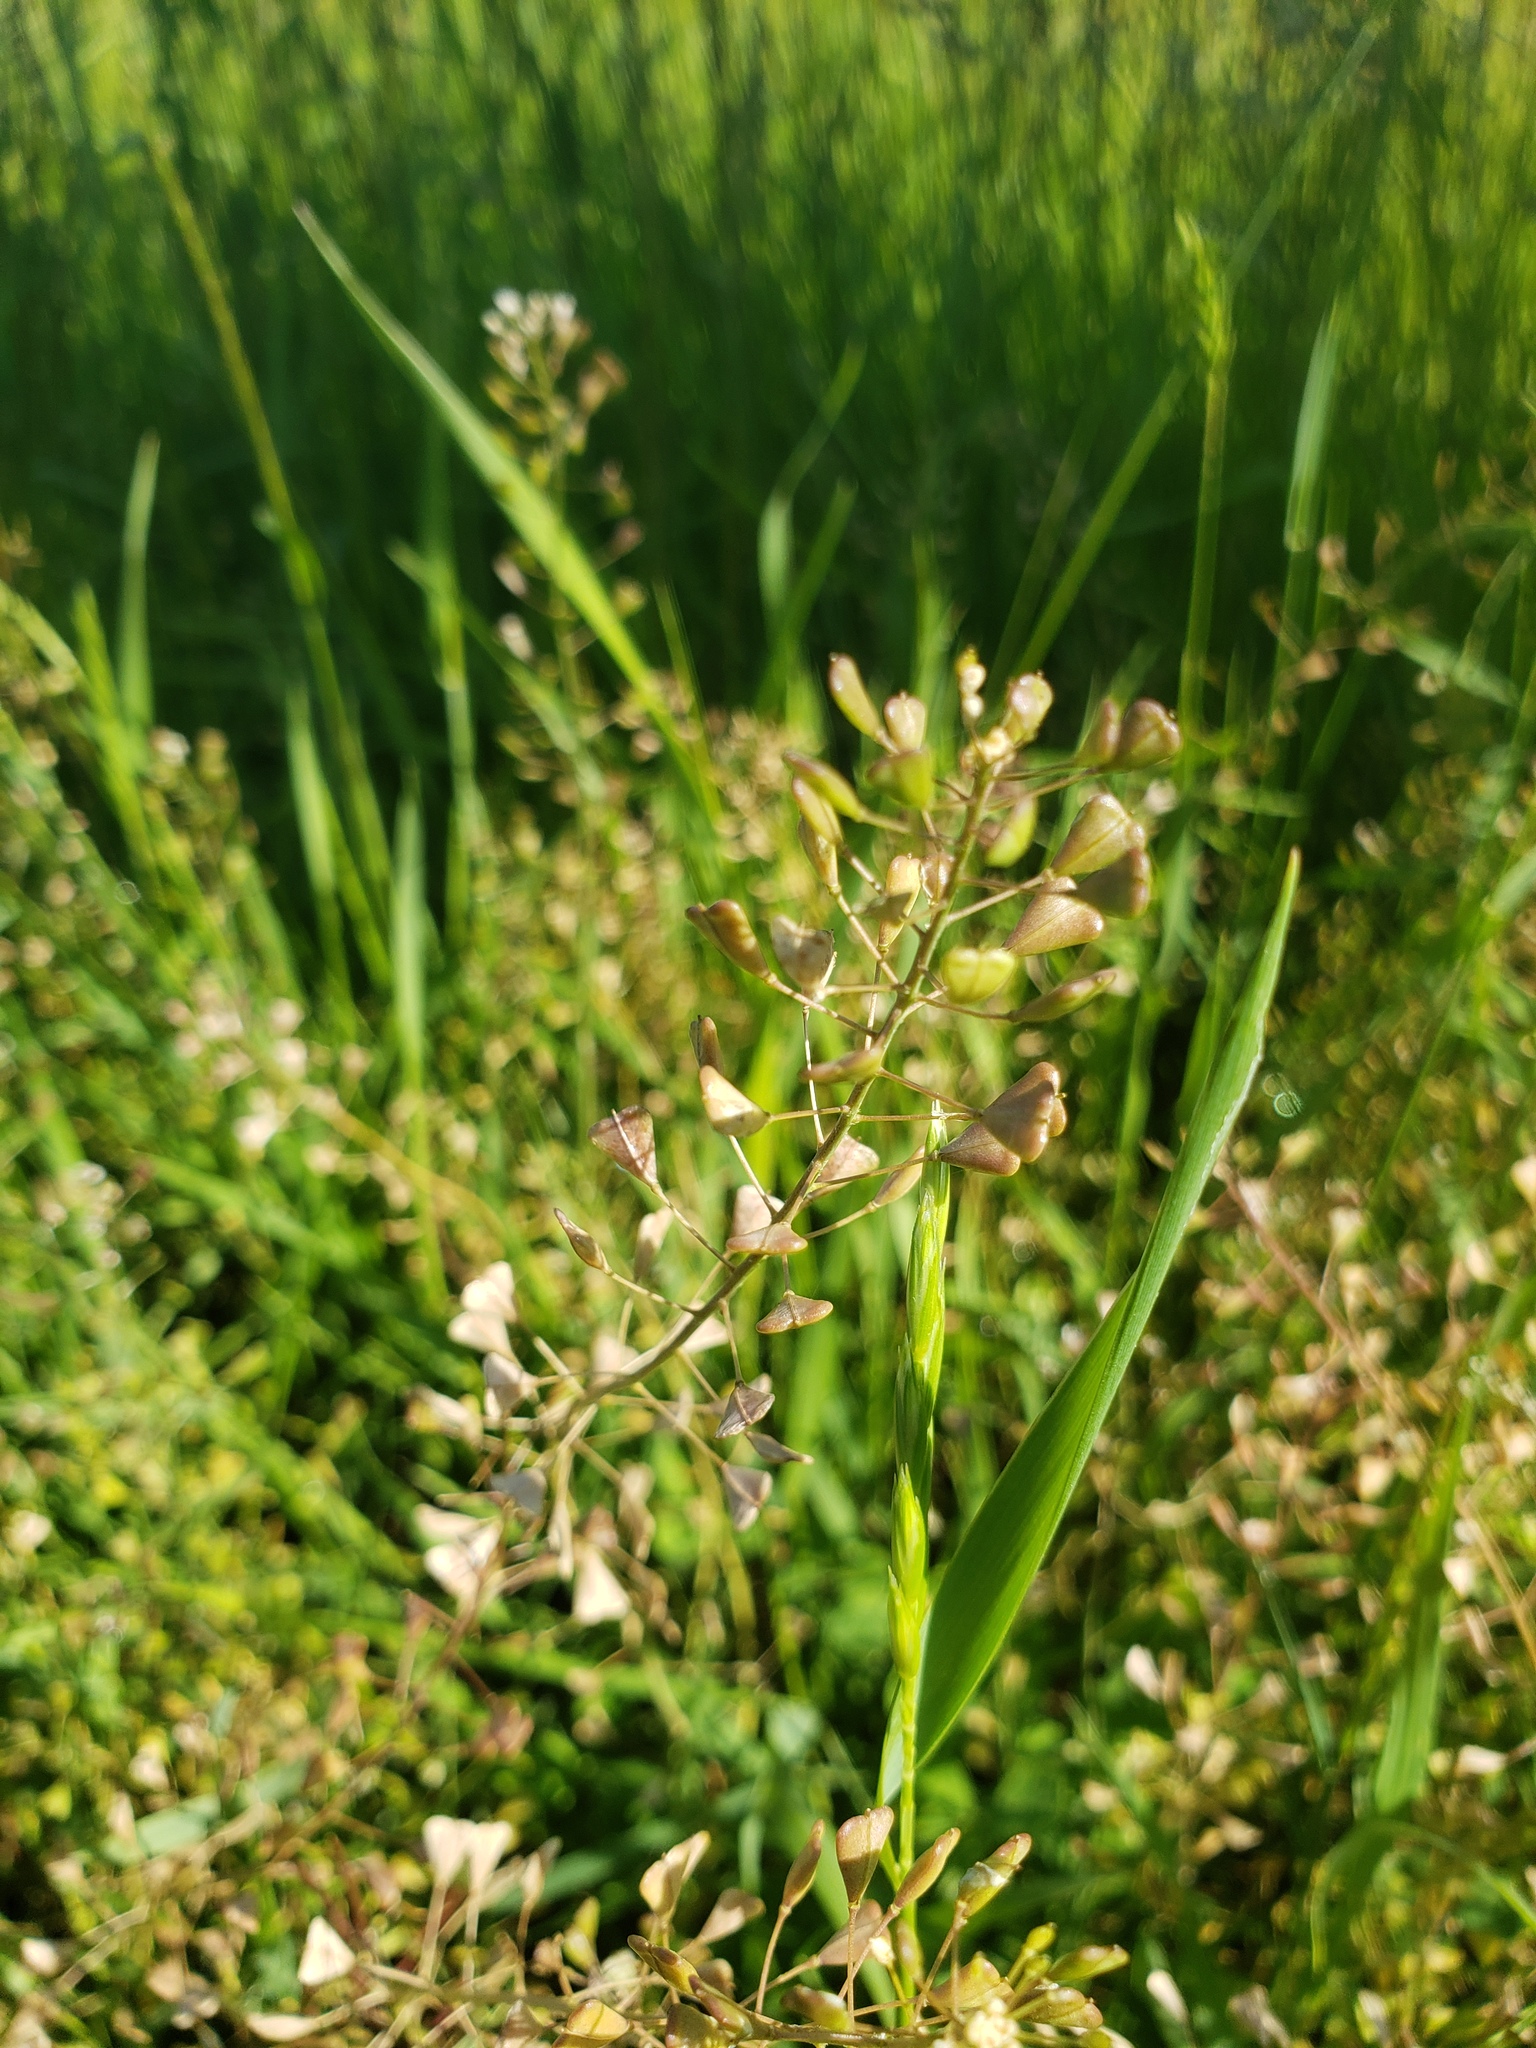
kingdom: Plantae
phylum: Tracheophyta
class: Magnoliopsida
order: Brassicales
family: Brassicaceae
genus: Capsella
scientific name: Capsella bursa-pastoris
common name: Shepherd's purse
